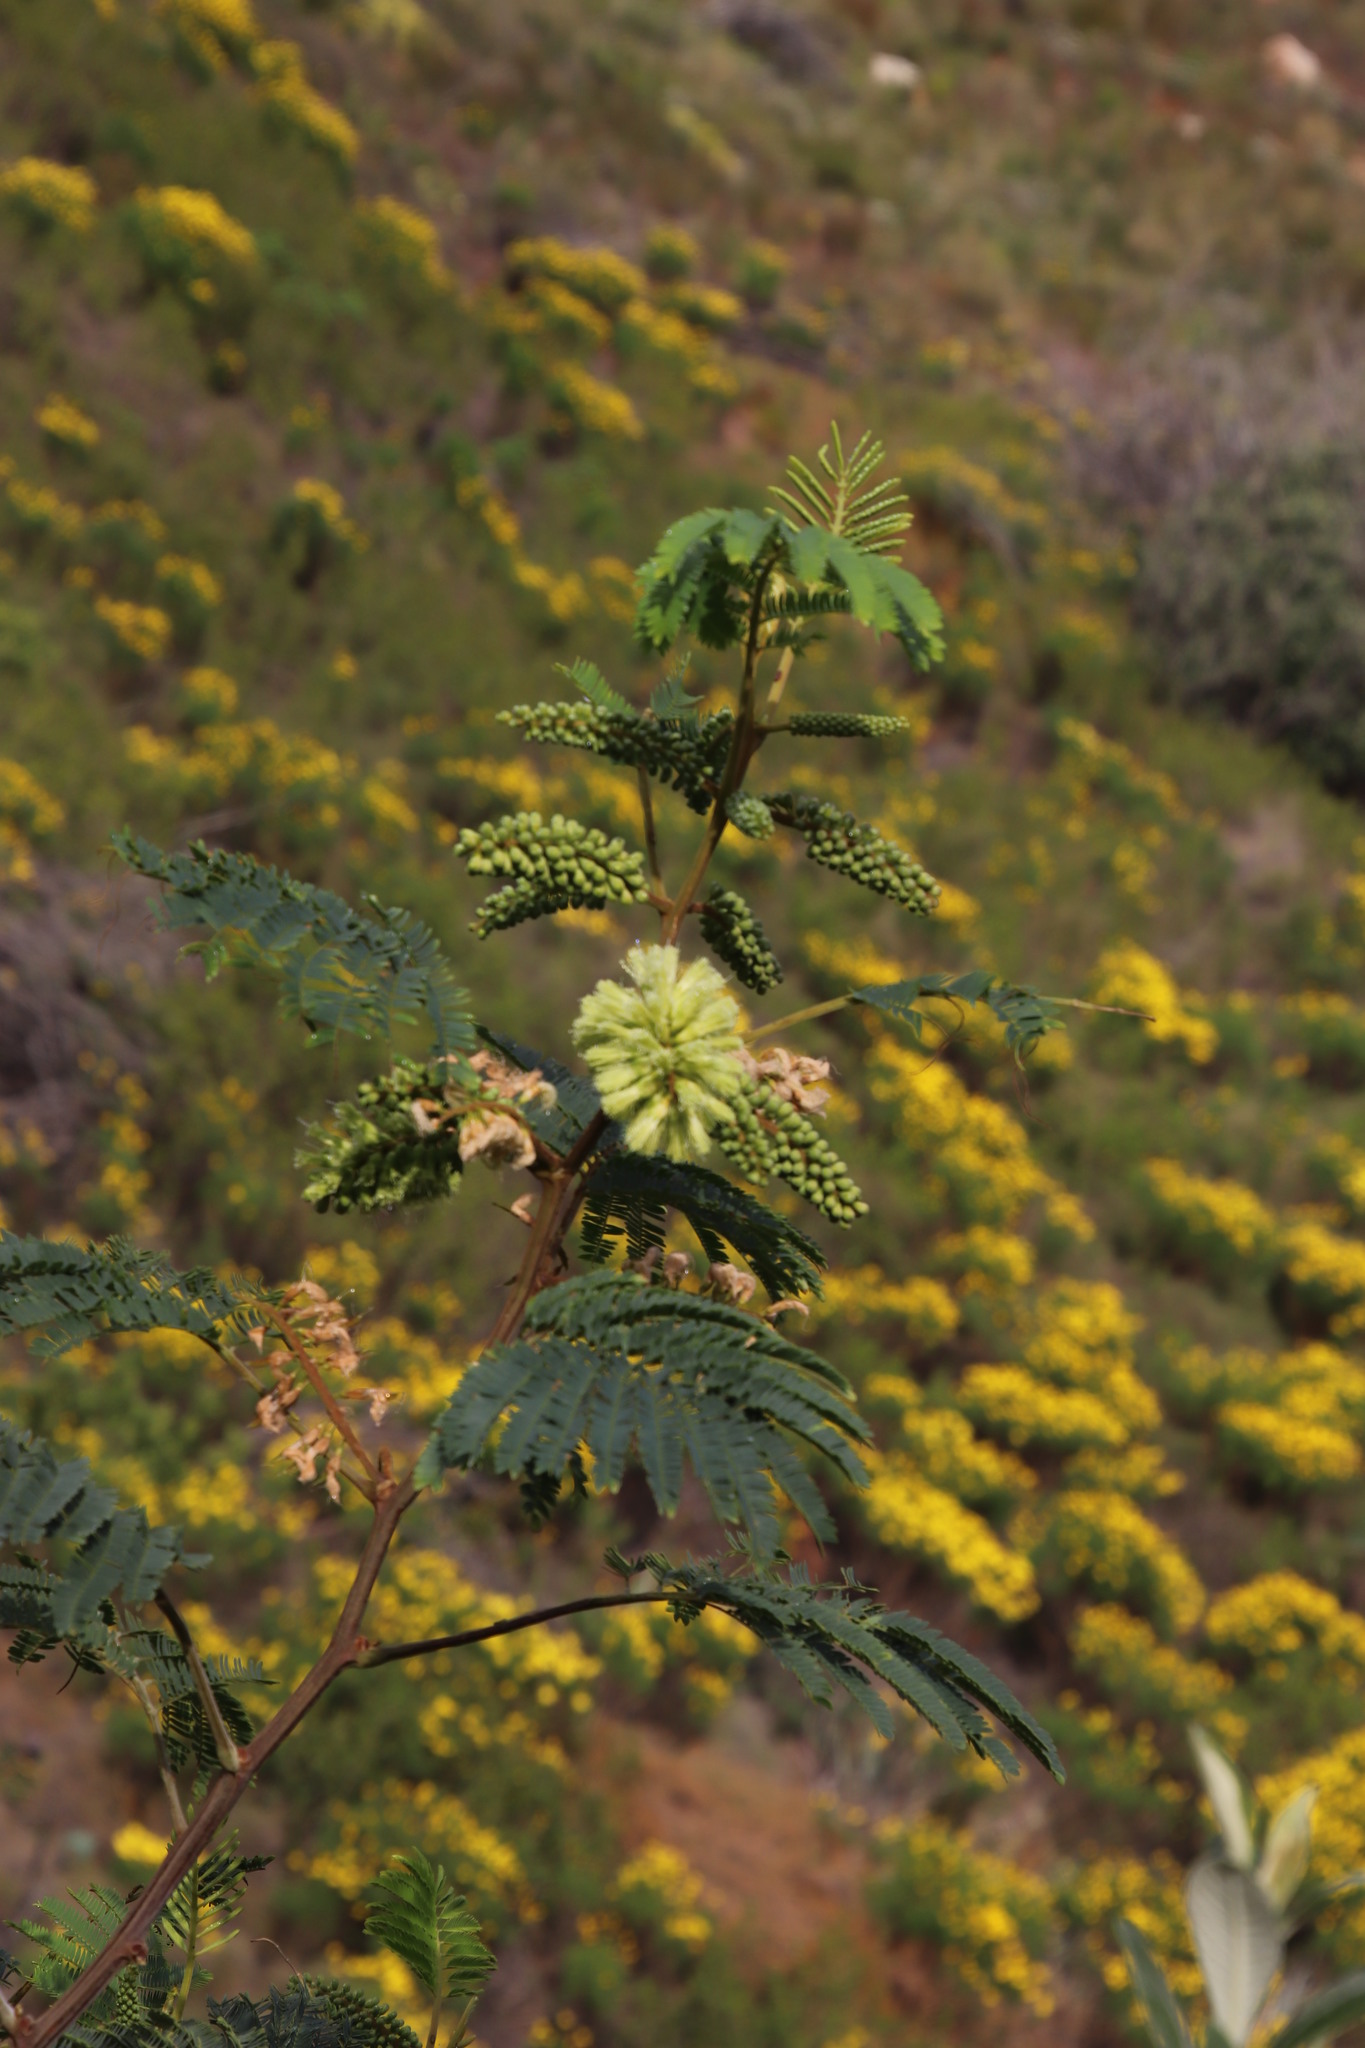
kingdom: Plantae
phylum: Tracheophyta
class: Magnoliopsida
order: Fabales
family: Fabaceae
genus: Paraserianthes
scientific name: Paraserianthes lophantha
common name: Plume albizia
